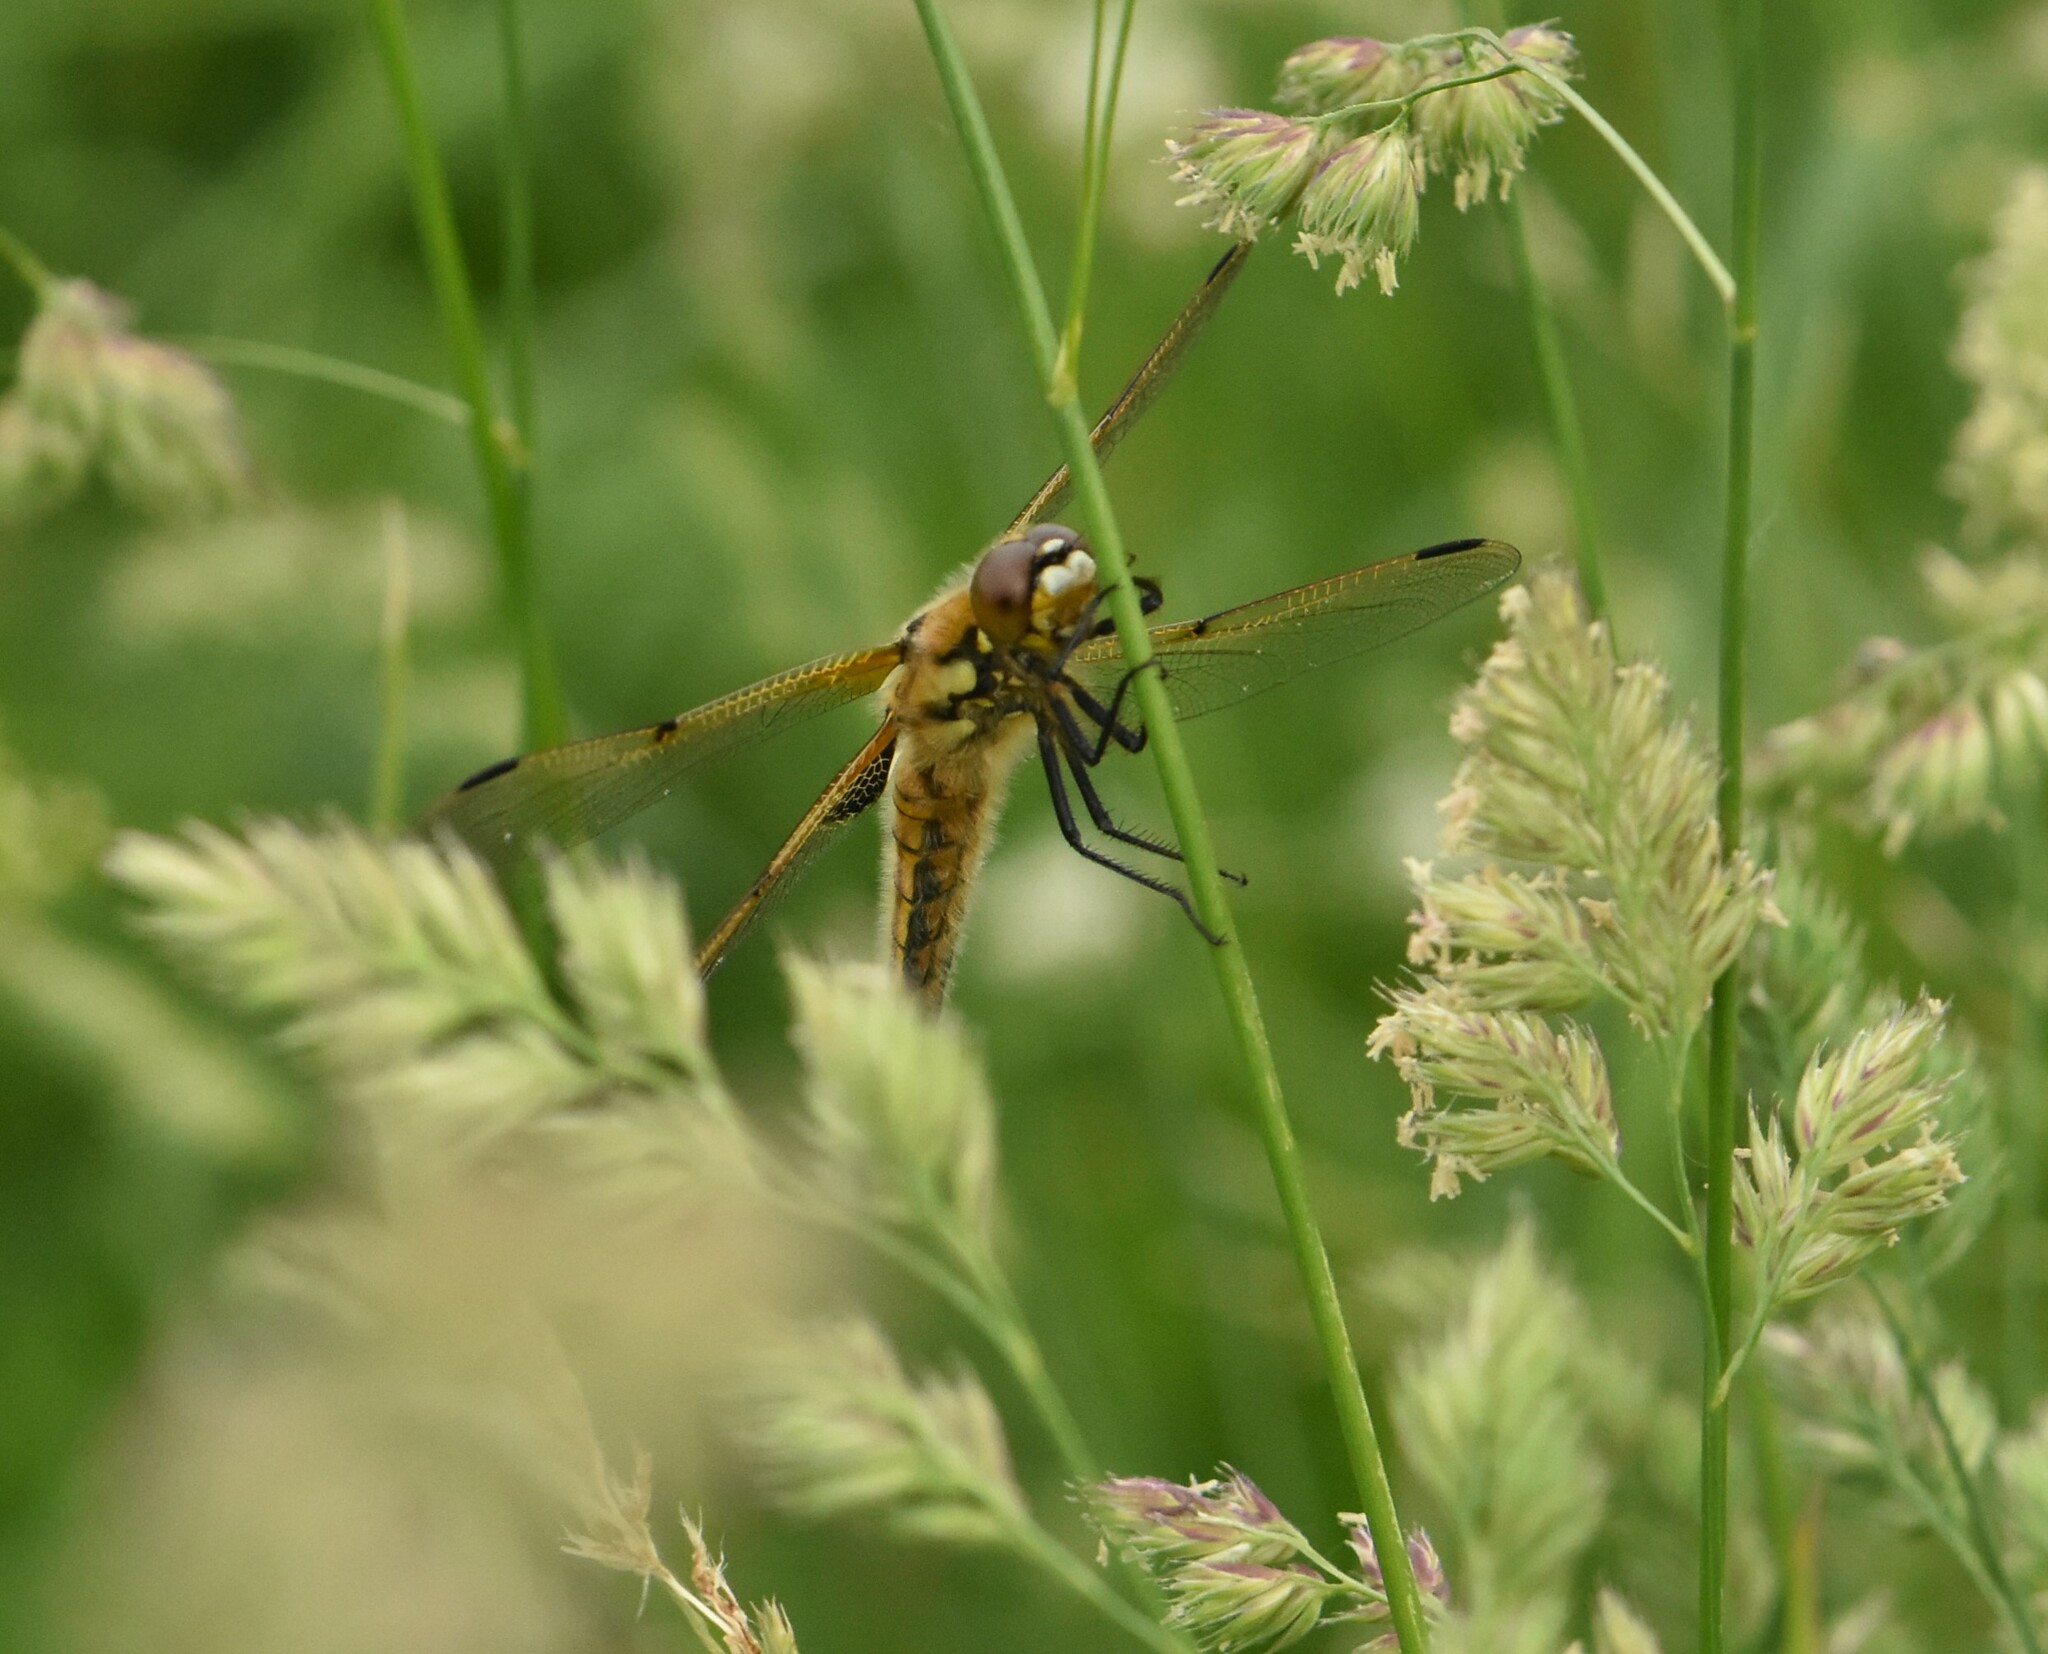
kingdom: Animalia
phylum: Arthropoda
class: Insecta
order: Odonata
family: Libellulidae
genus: Libellula
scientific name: Libellula quadrimaculata
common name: Four-spotted chaser
